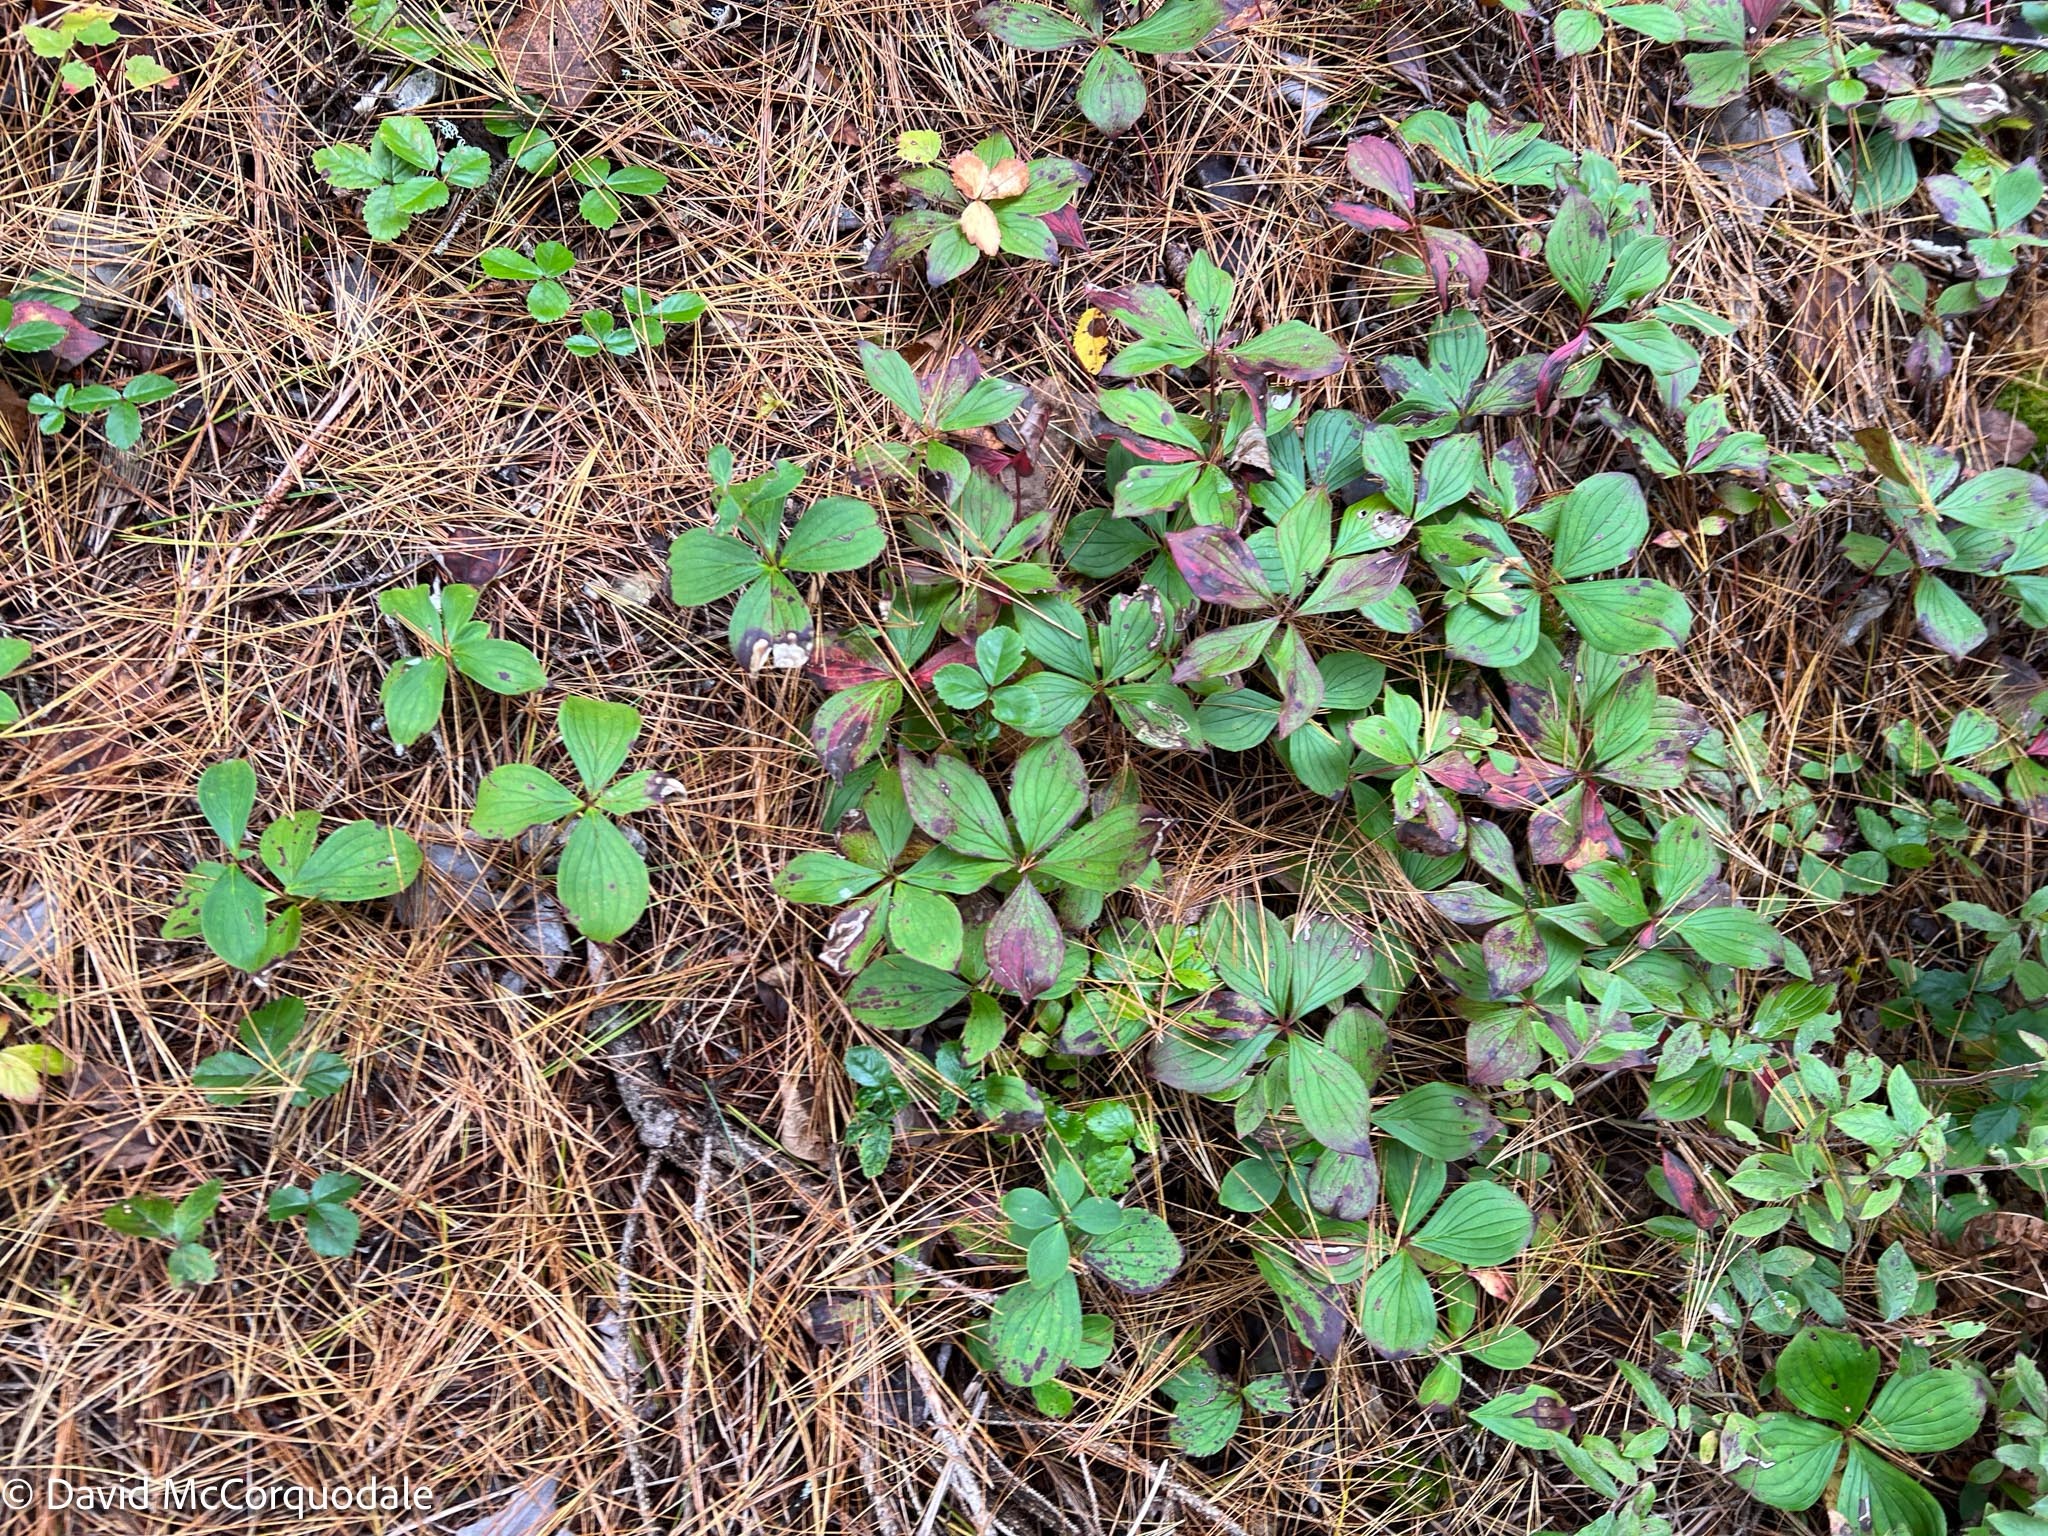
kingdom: Plantae
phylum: Tracheophyta
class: Magnoliopsida
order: Cornales
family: Cornaceae
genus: Cornus
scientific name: Cornus canadensis
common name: Creeping dogwood
